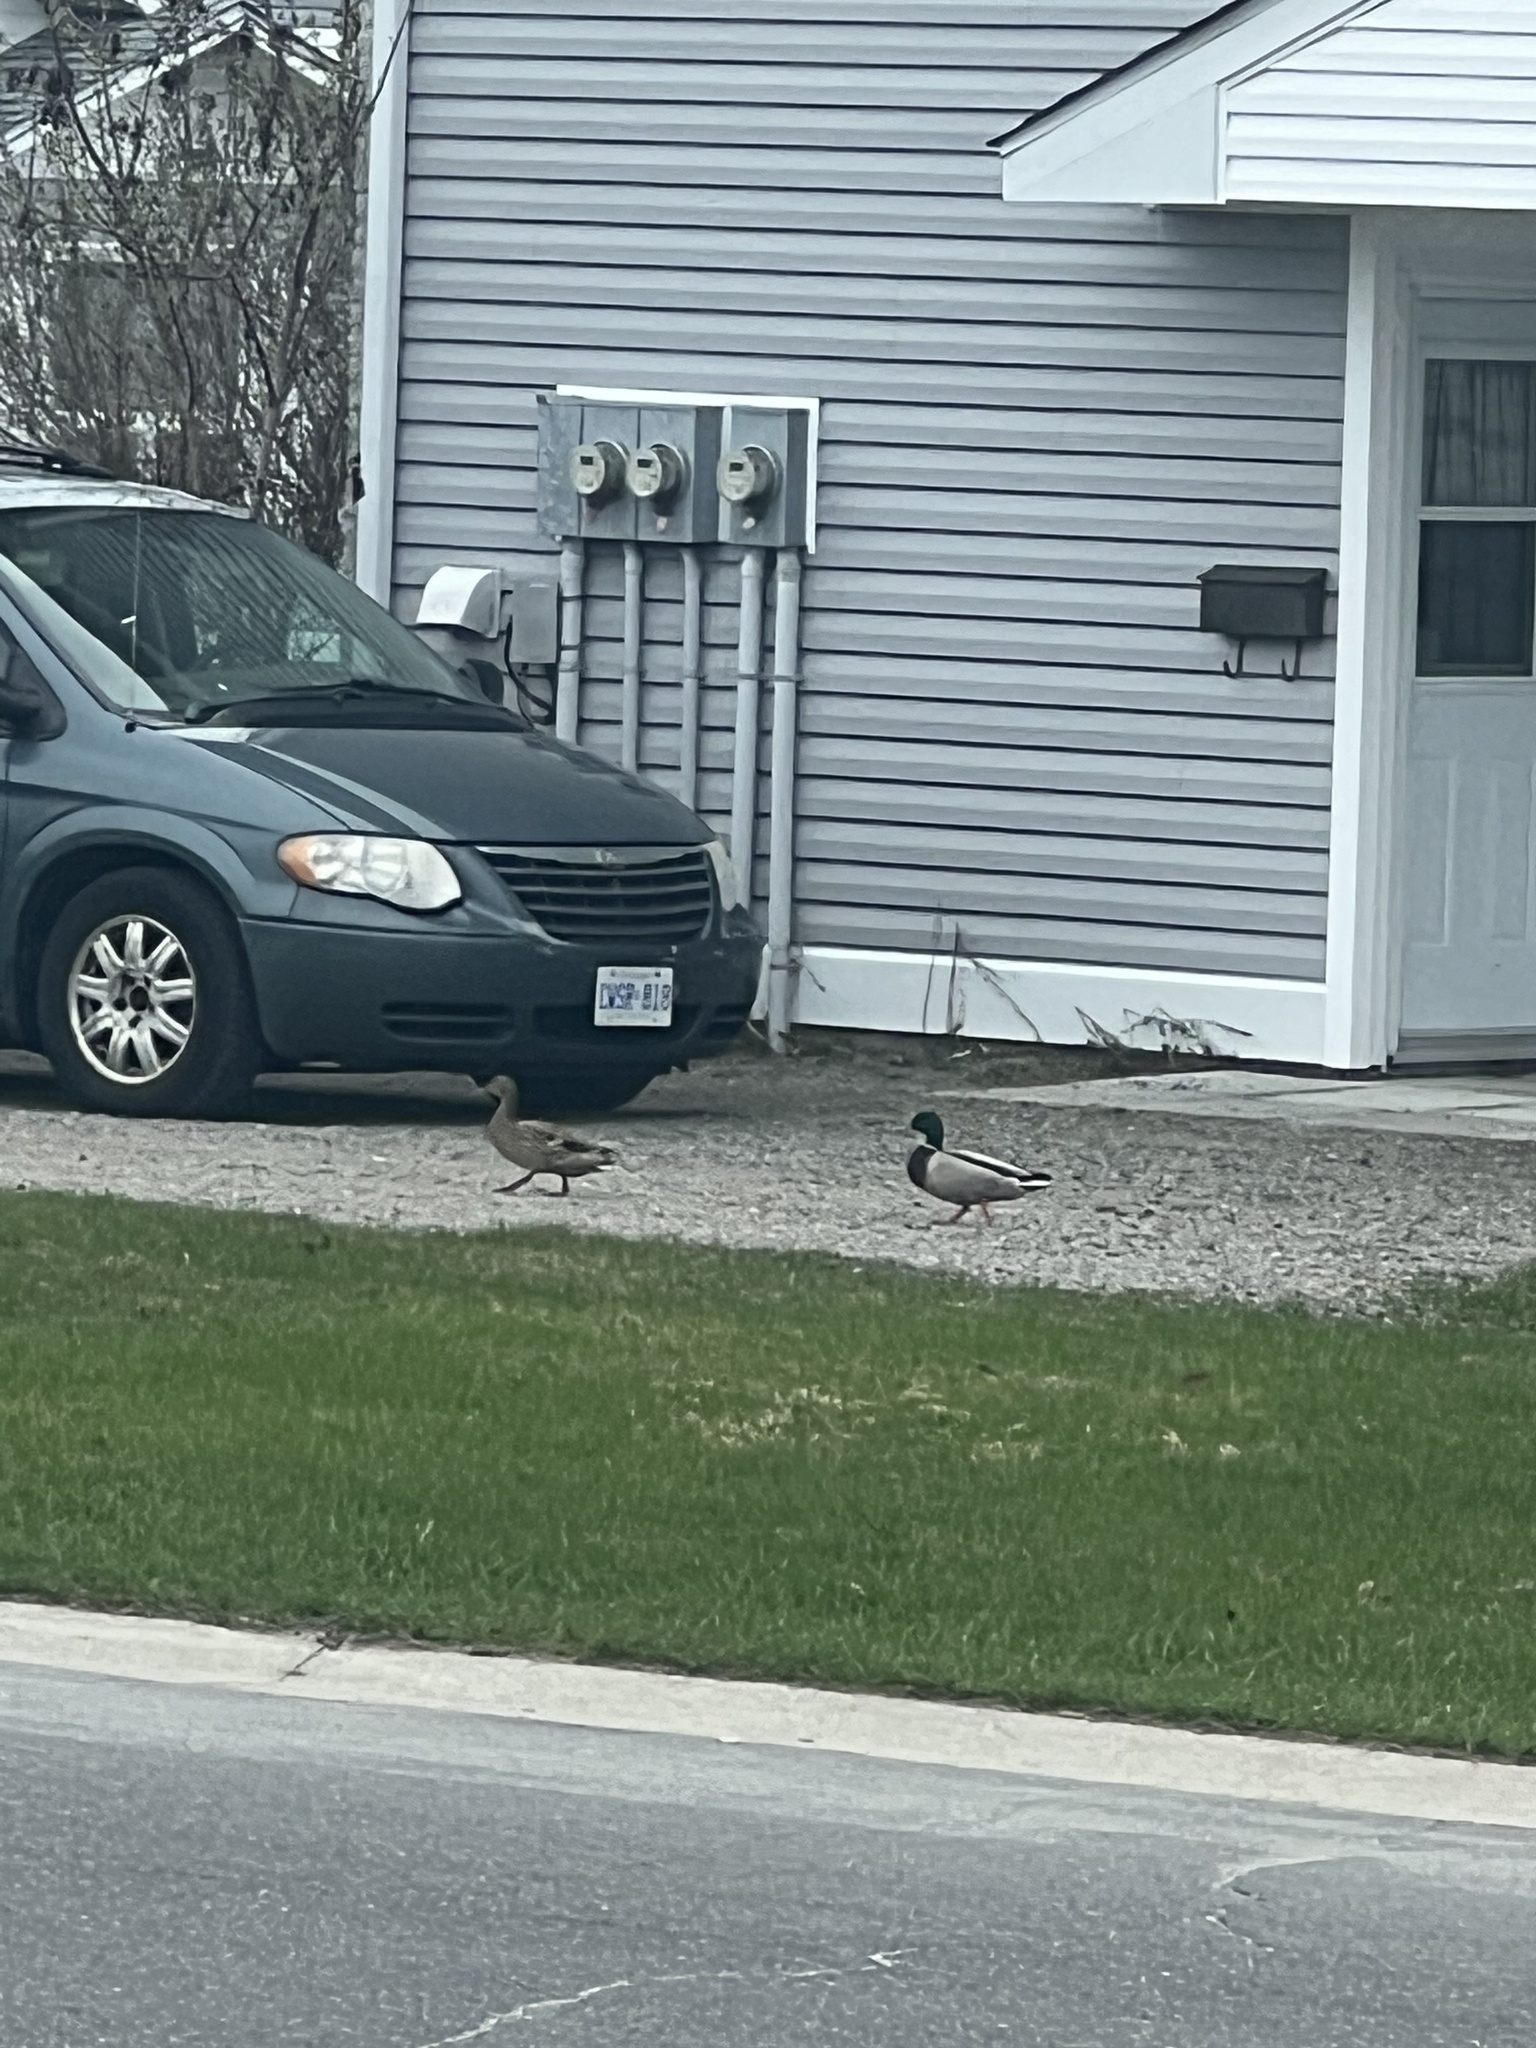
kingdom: Animalia
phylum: Chordata
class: Aves
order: Anseriformes
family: Anatidae
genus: Anas
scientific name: Anas platyrhynchos
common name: Mallard
